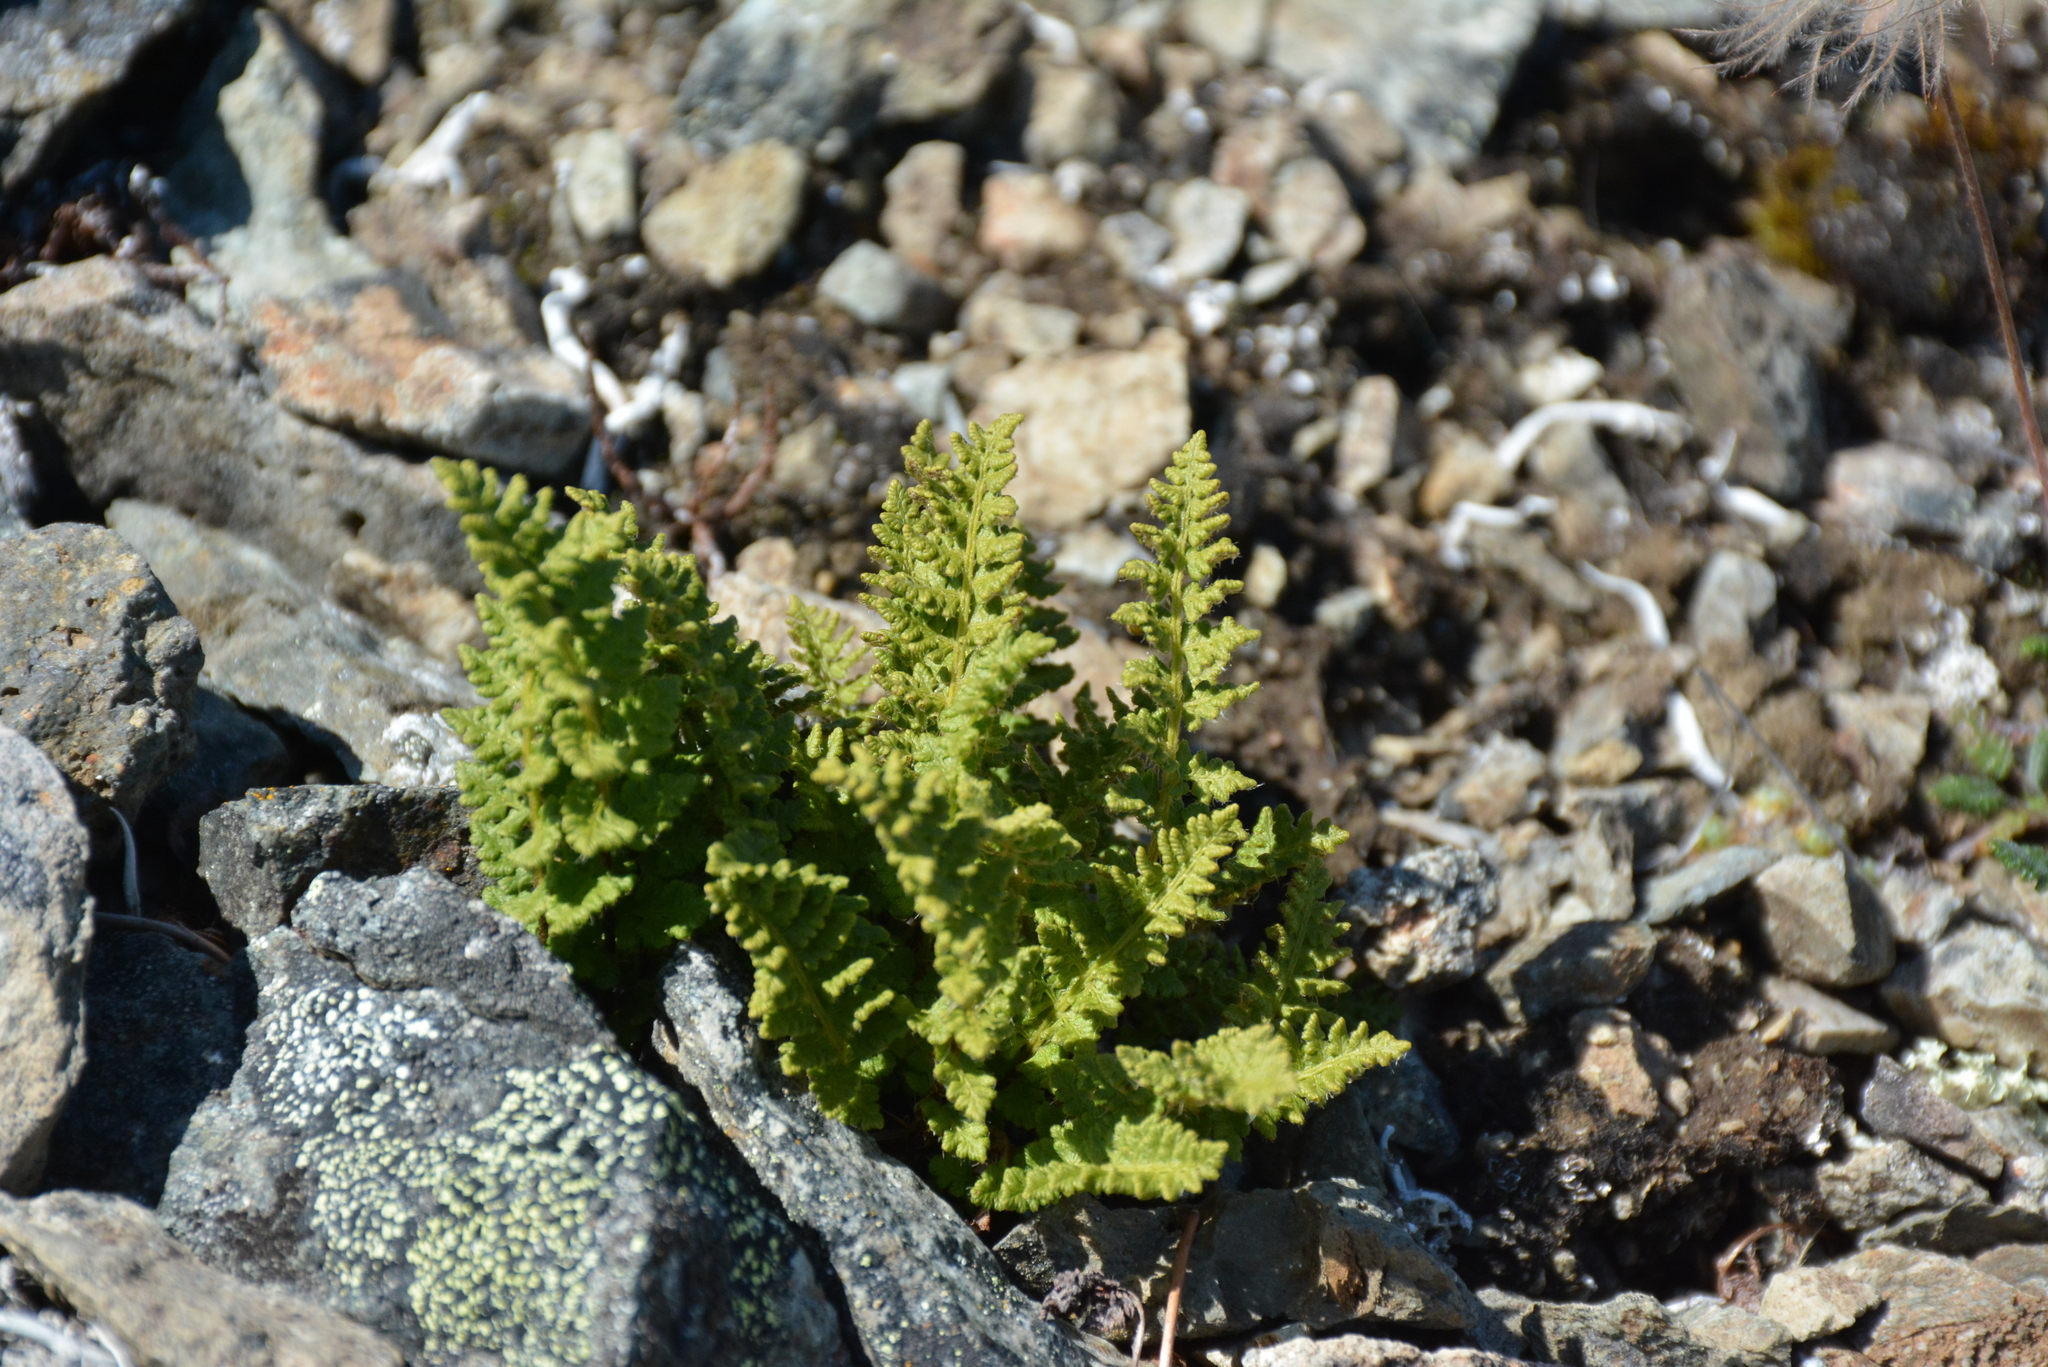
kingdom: Plantae
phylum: Tracheophyta
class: Polypodiopsida
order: Polypodiales
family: Woodsiaceae
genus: Woodsia
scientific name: Woodsia ilvensis
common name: Fragrant woodsia
